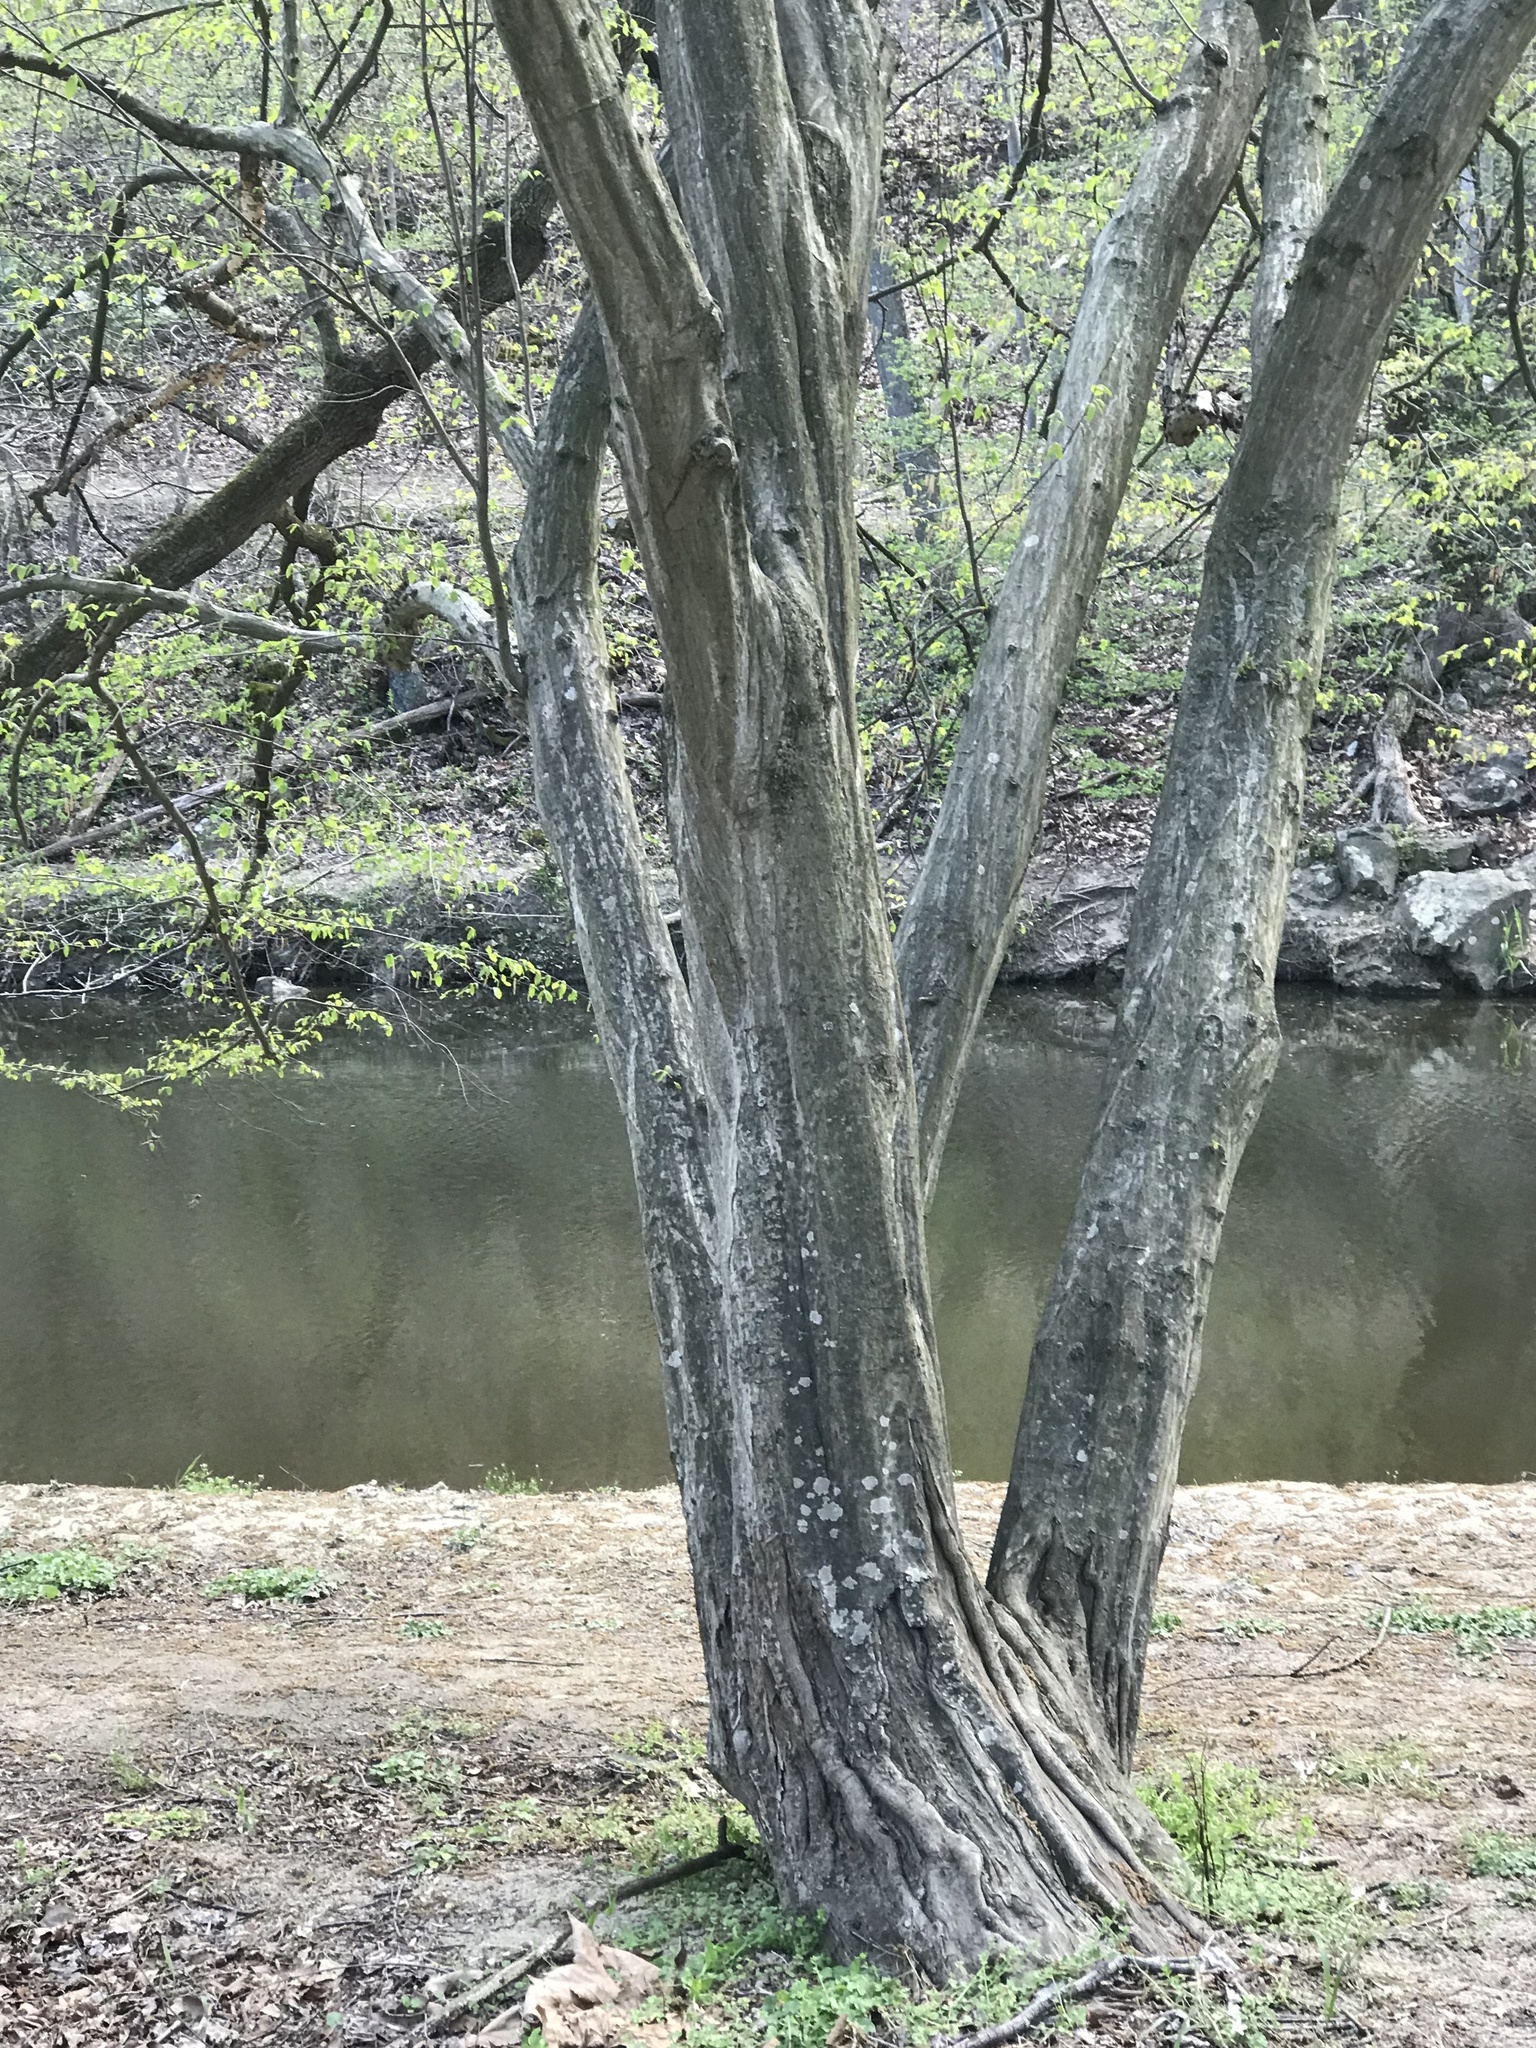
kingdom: Plantae
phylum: Tracheophyta
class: Magnoliopsida
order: Fagales
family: Betulaceae
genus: Carpinus
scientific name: Carpinus caroliniana
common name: American hornbeam
